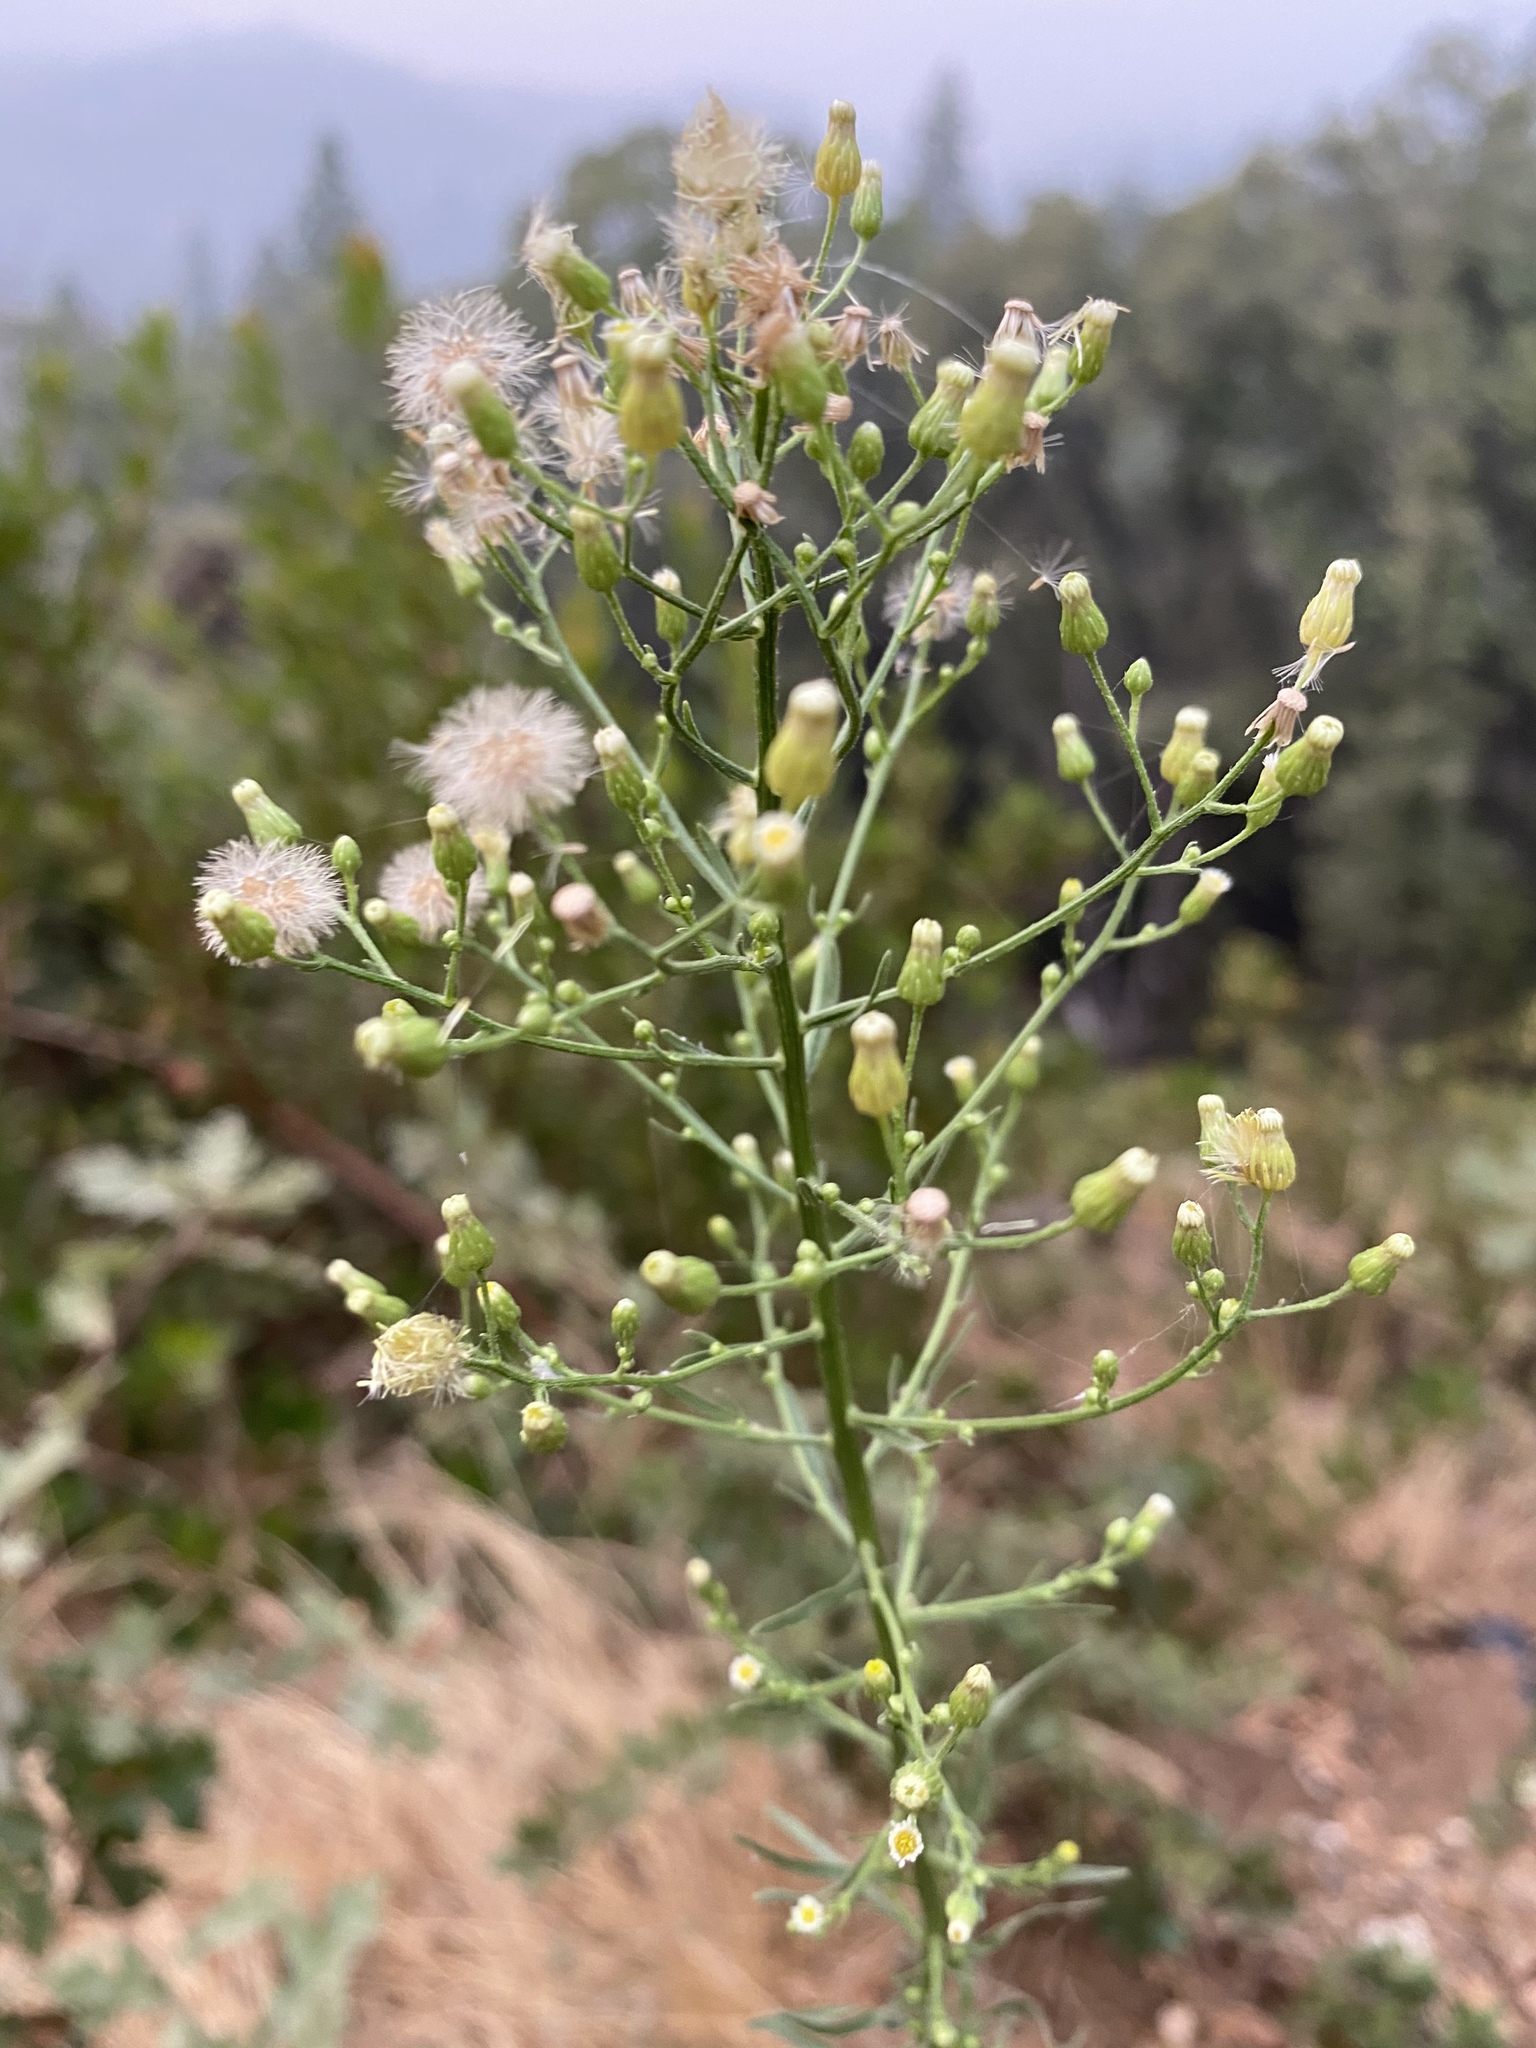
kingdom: Plantae
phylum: Tracheophyta
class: Magnoliopsida
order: Asterales
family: Asteraceae
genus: Erigeron
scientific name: Erigeron canadensis
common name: Canadian fleabane
